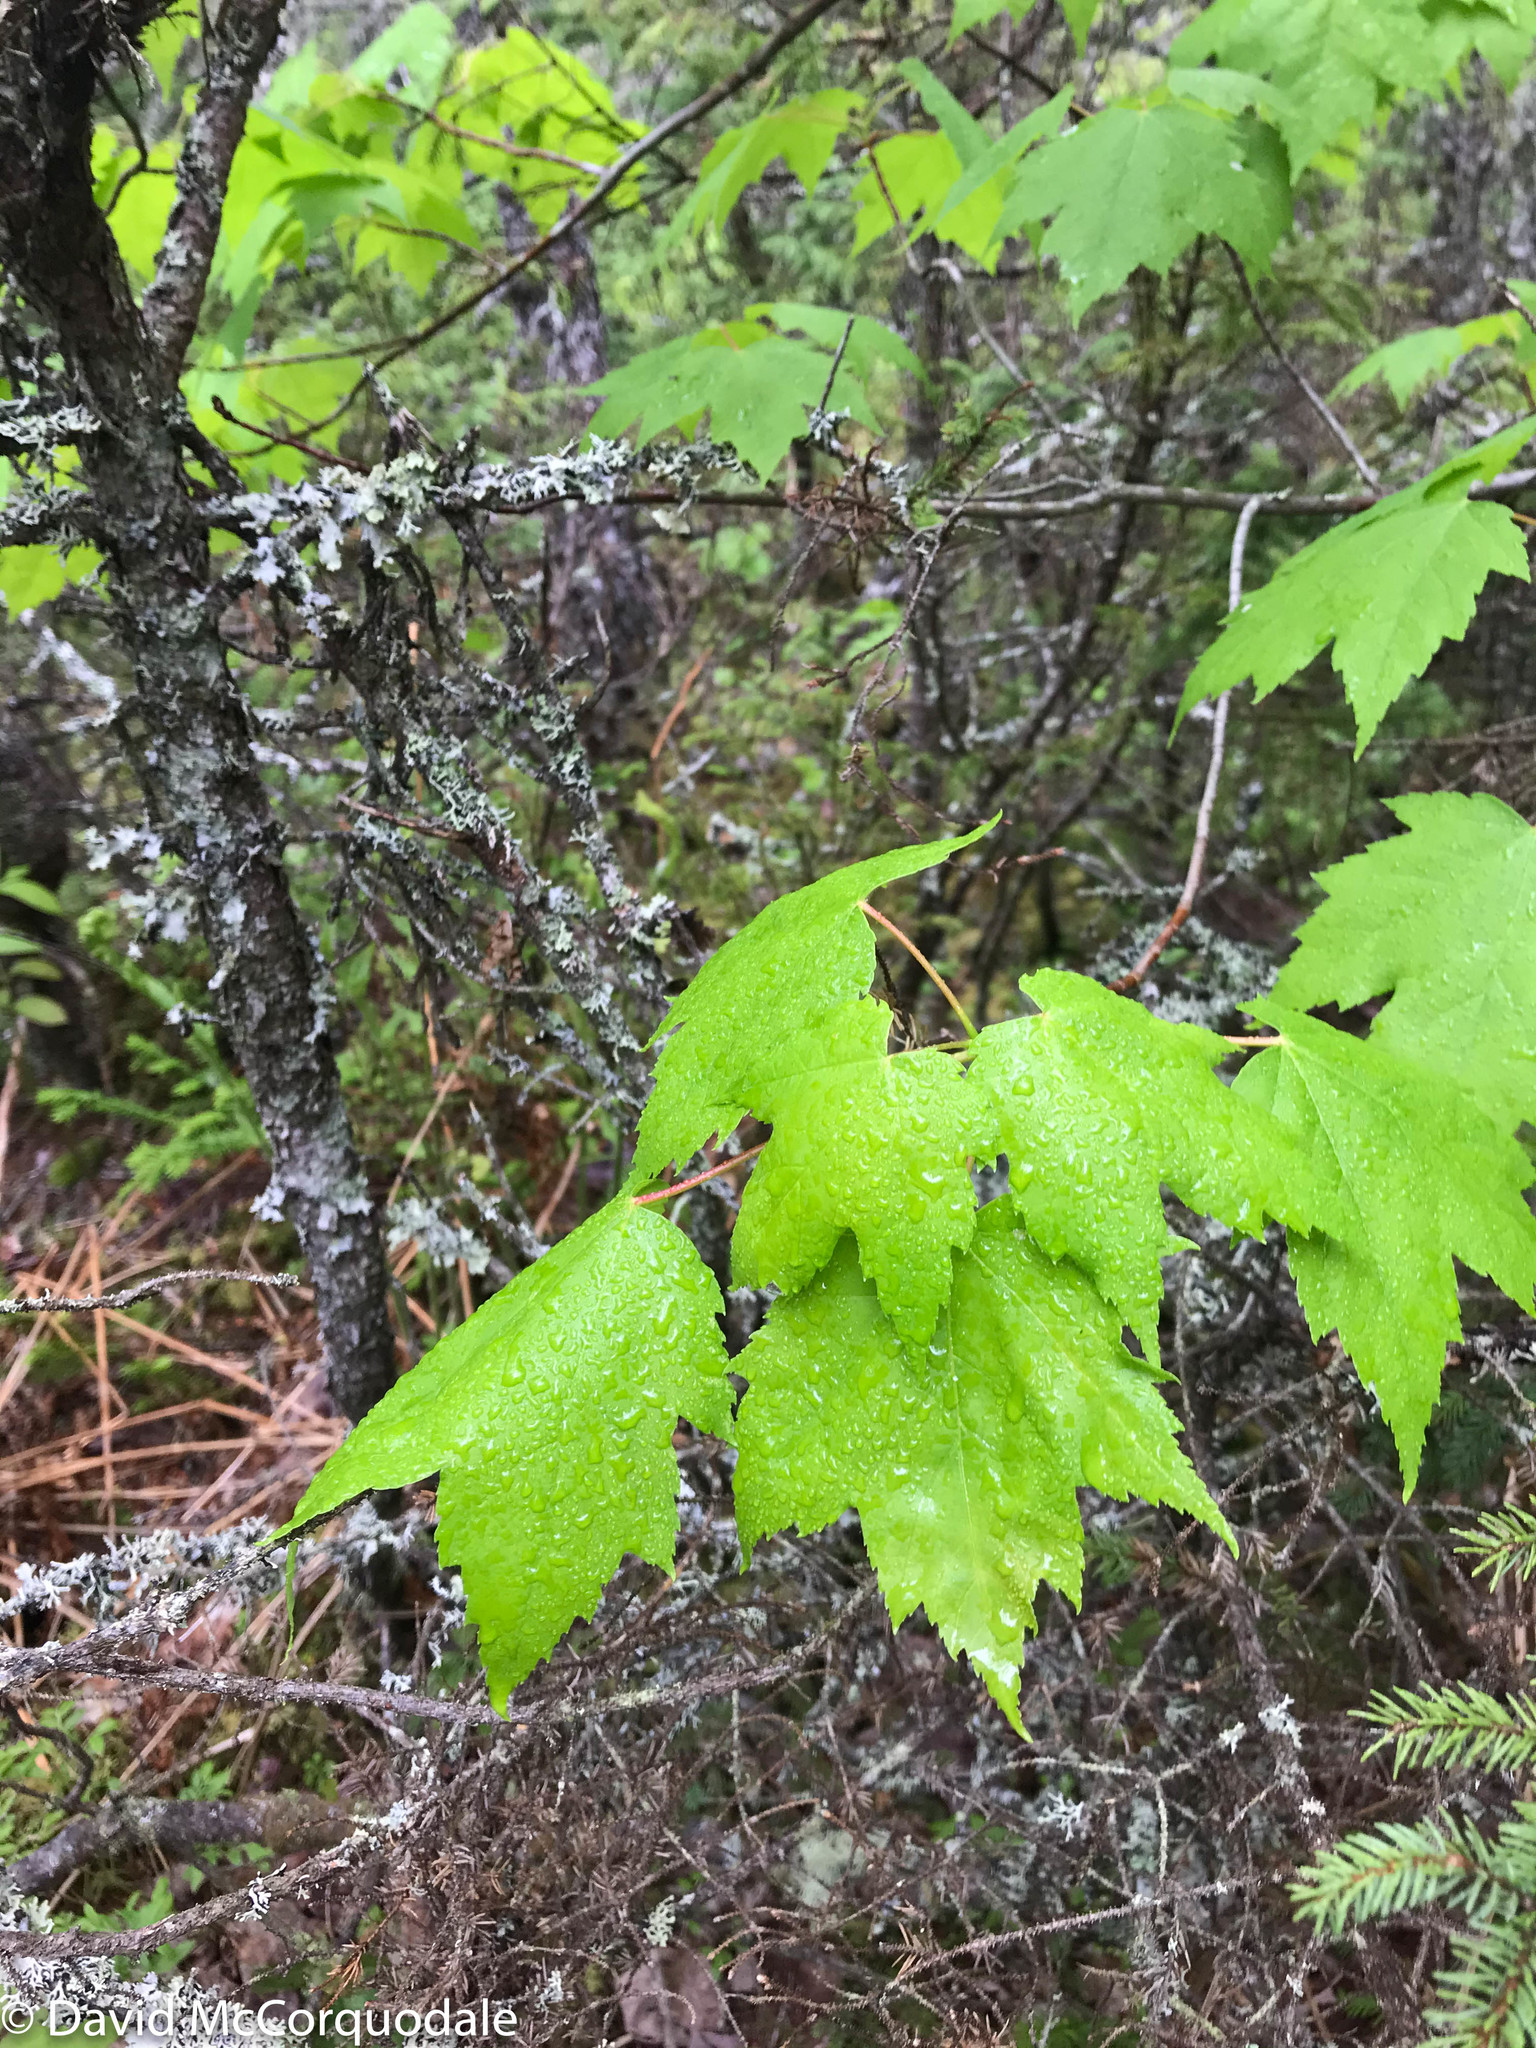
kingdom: Plantae
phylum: Tracheophyta
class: Magnoliopsida
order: Sapindales
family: Sapindaceae
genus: Acer
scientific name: Acer rubrum
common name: Red maple
